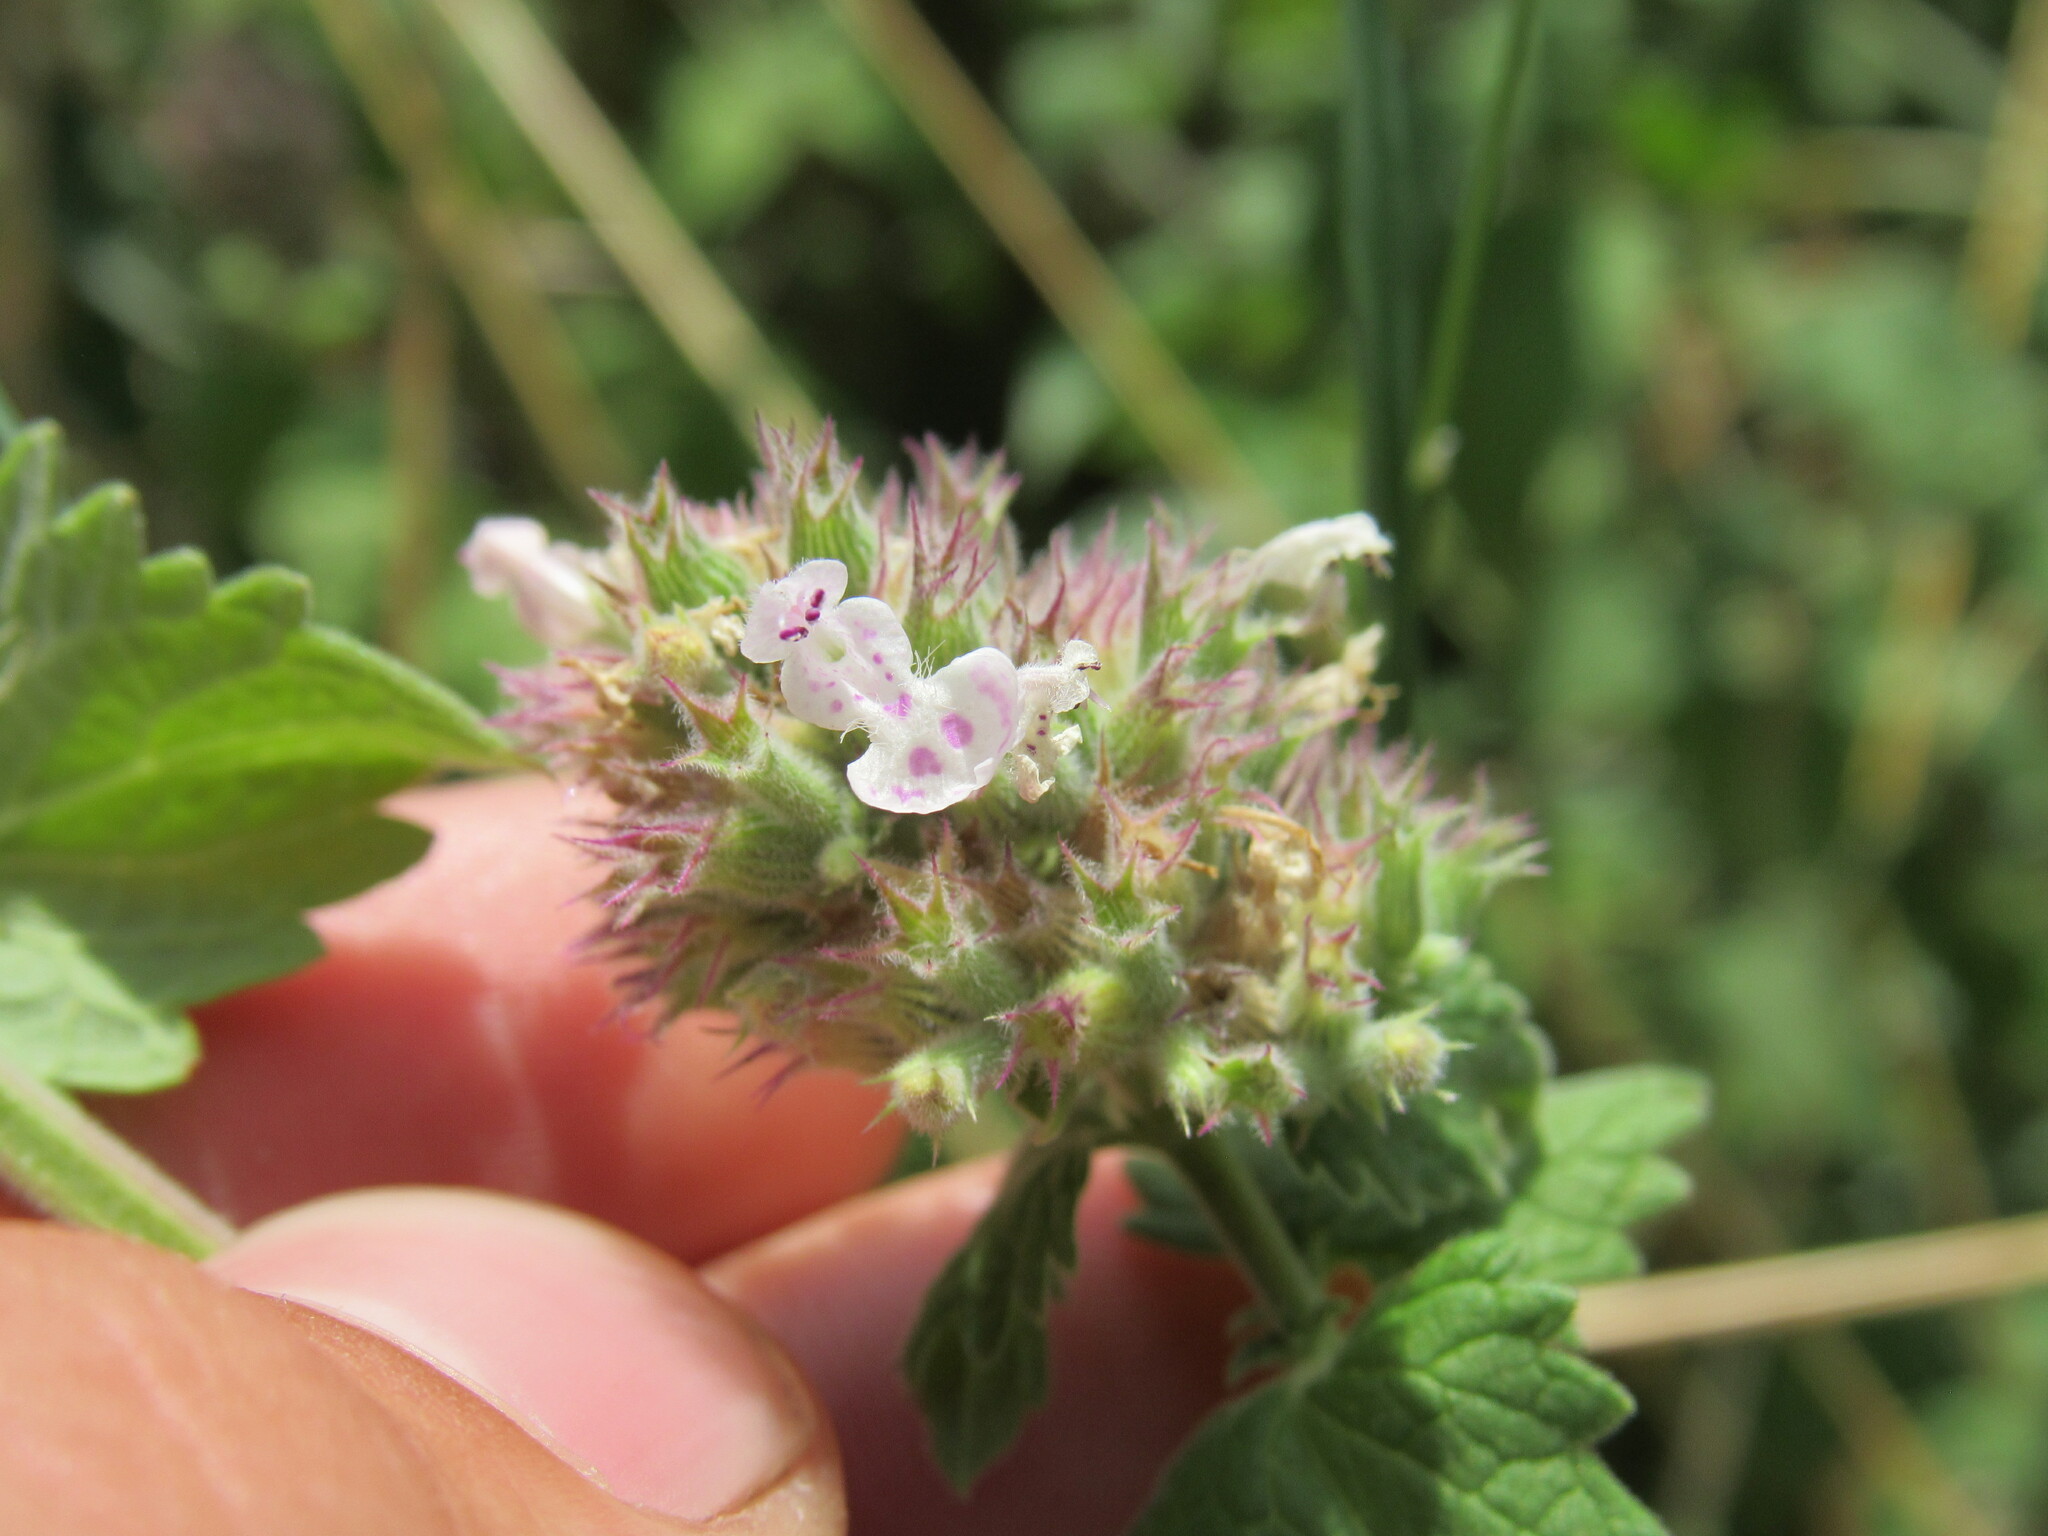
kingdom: Plantae
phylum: Tracheophyta
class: Magnoliopsida
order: Lamiales
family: Lamiaceae
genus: Nepeta
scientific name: Nepeta cataria
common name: Catnip
